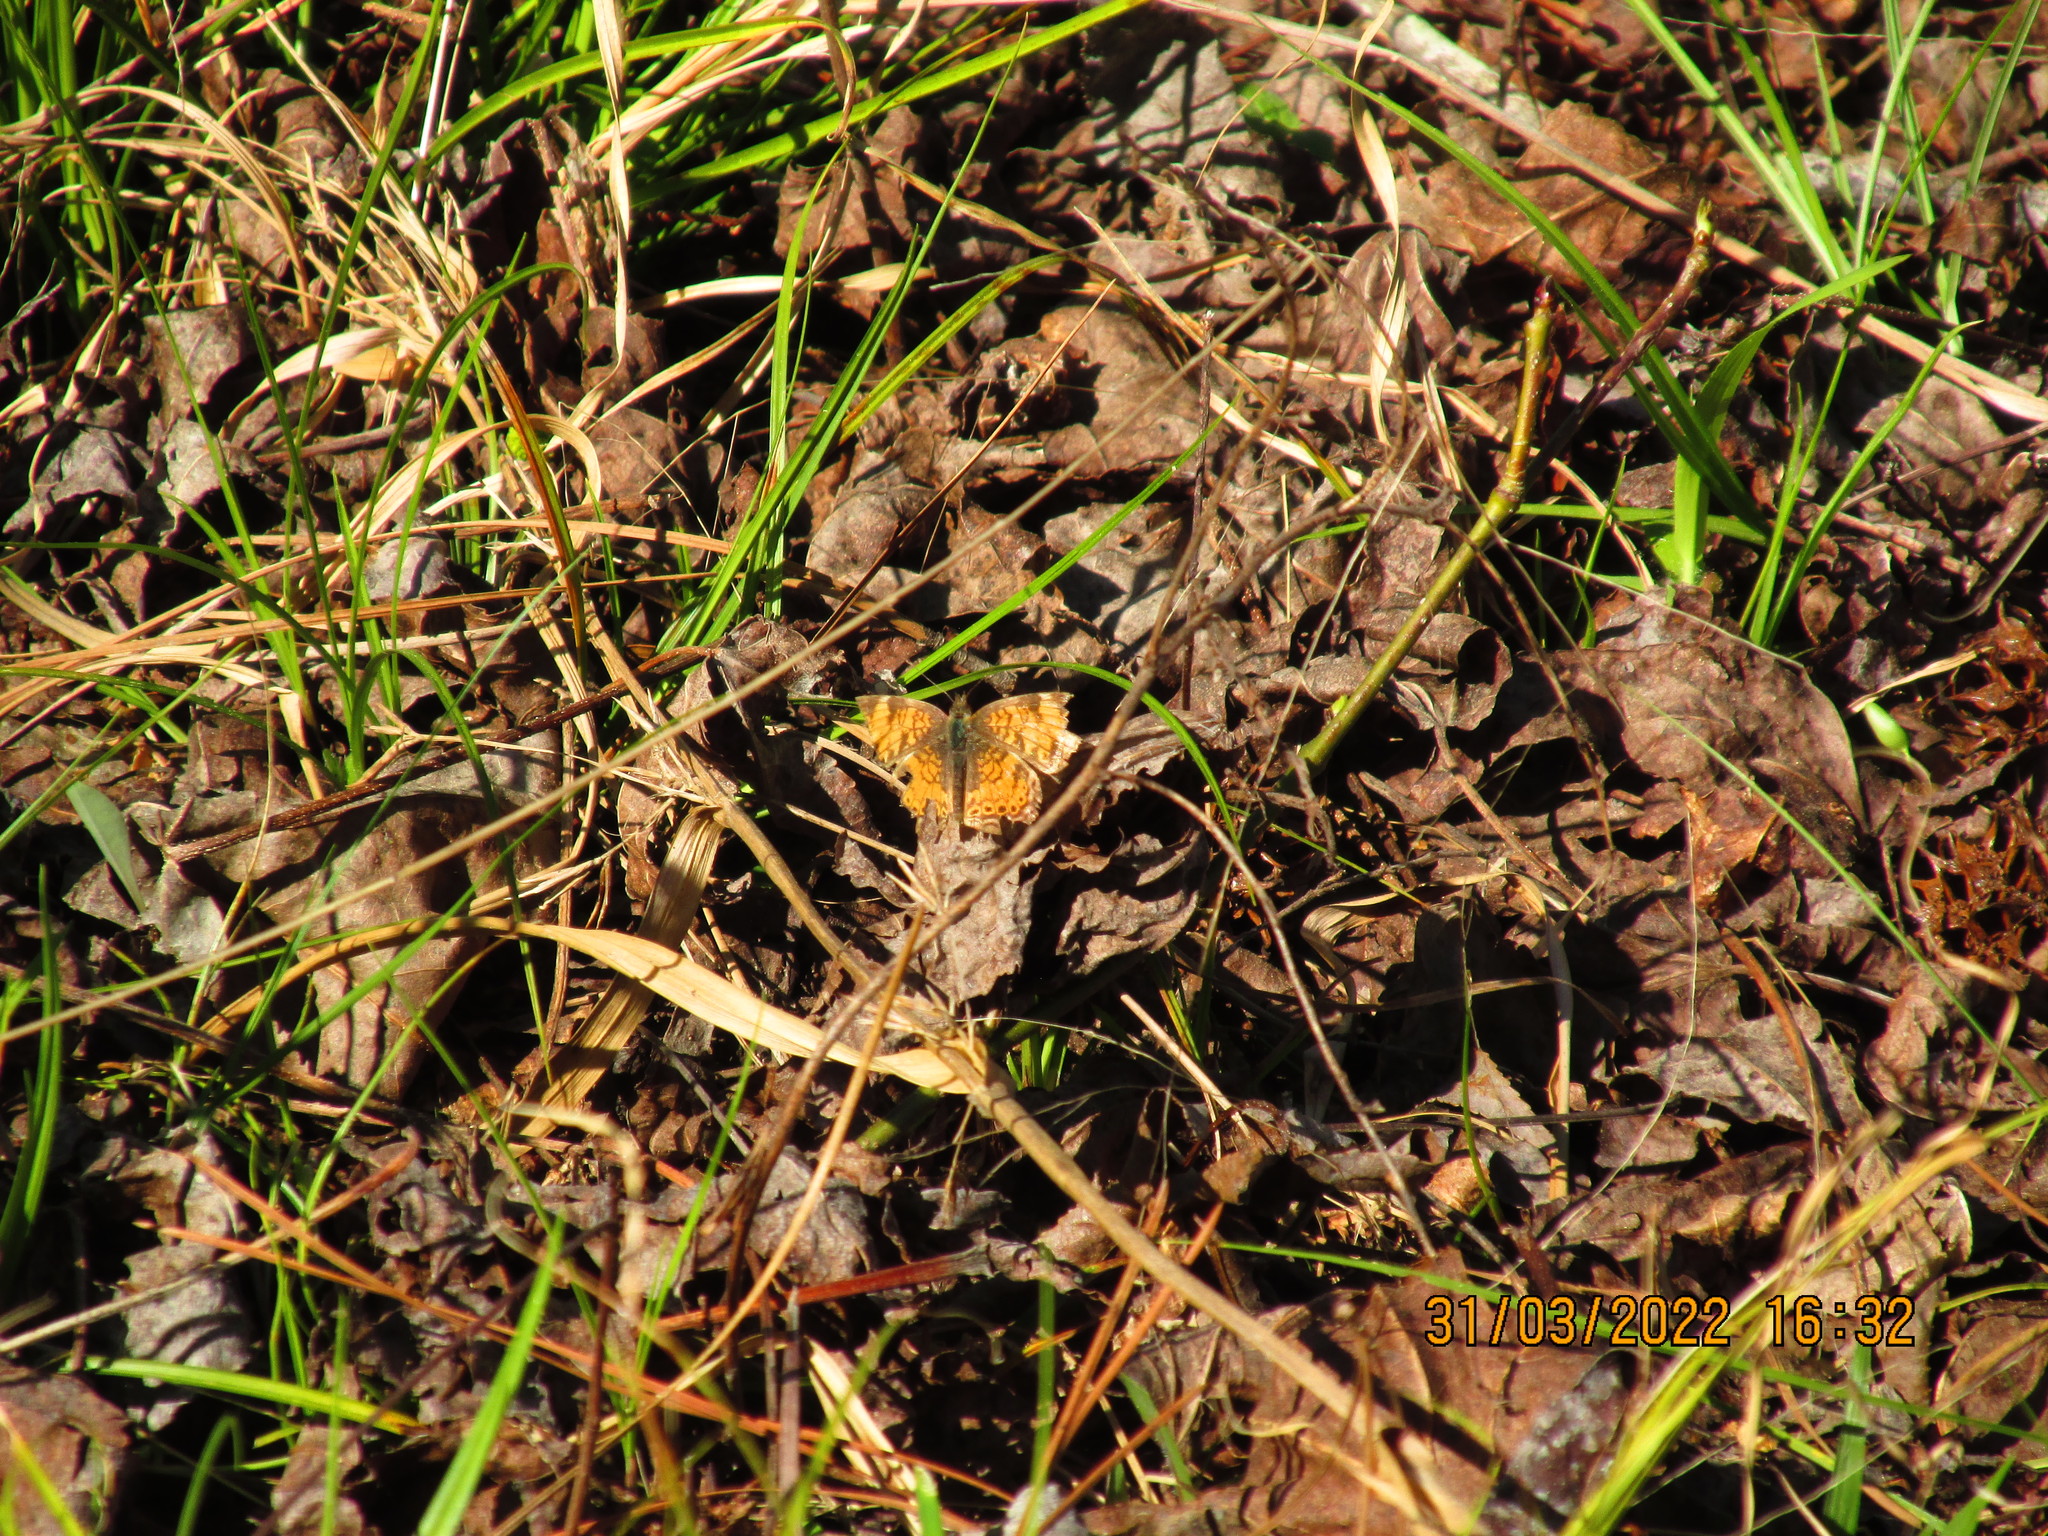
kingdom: Animalia
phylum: Arthropoda
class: Insecta
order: Lepidoptera
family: Nymphalidae
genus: Phyciodes
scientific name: Phyciodes tharos
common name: Pearl crescent
